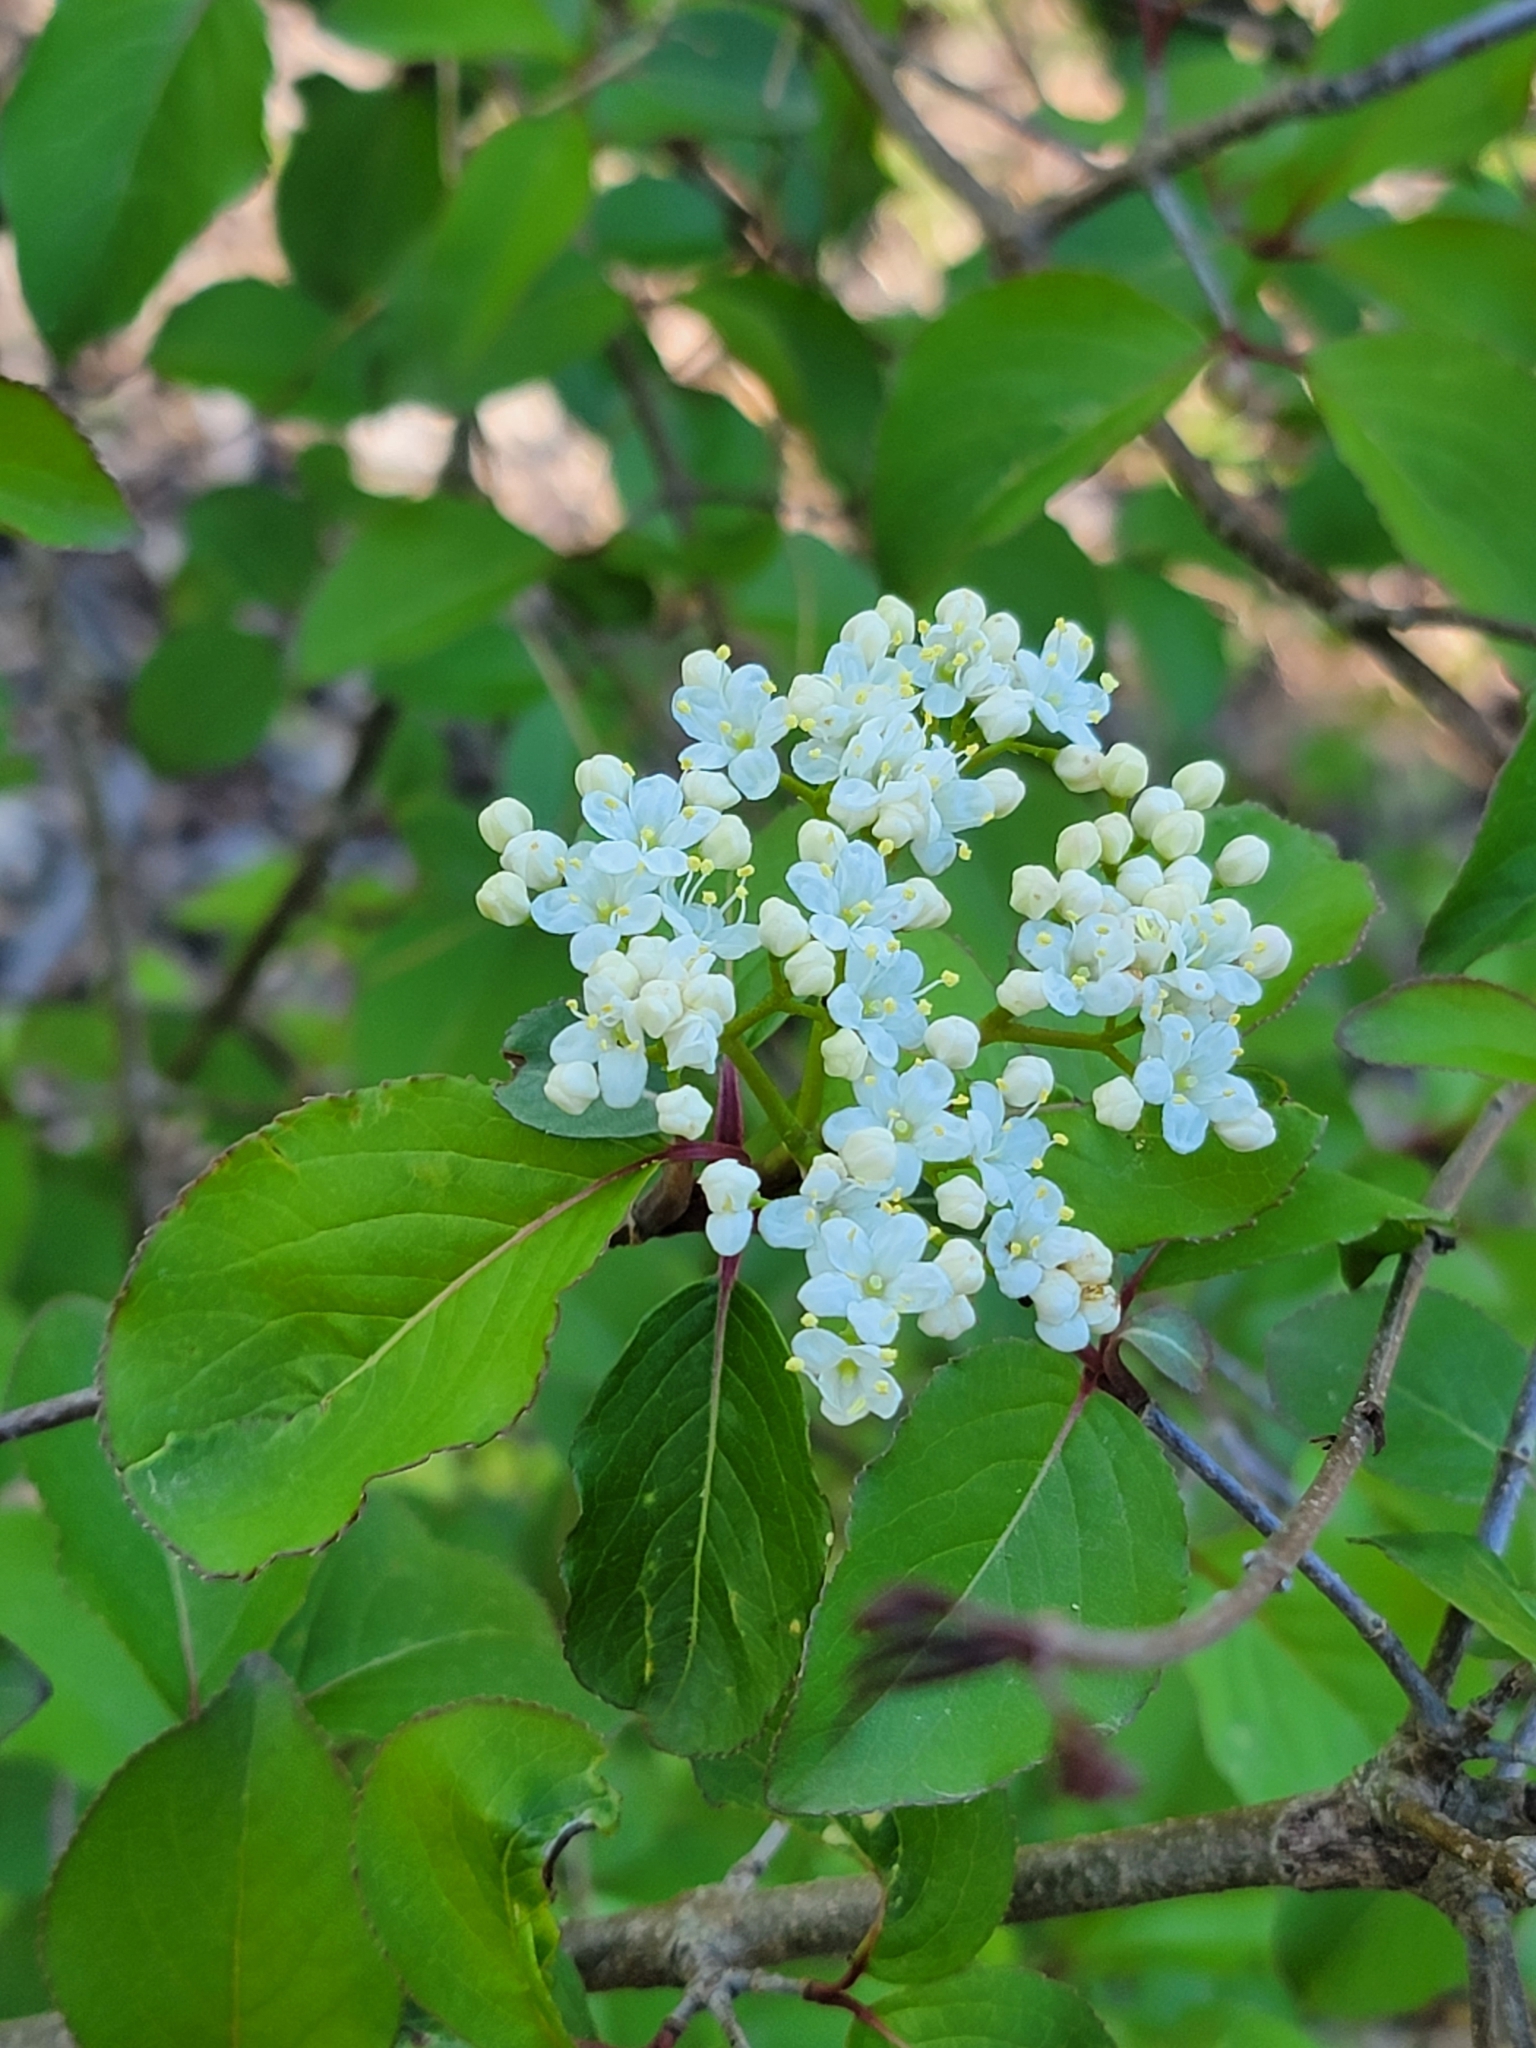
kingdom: Plantae
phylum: Tracheophyta
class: Magnoliopsida
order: Dipsacales
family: Viburnaceae
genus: Viburnum
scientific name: Viburnum prunifolium
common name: Black haw
